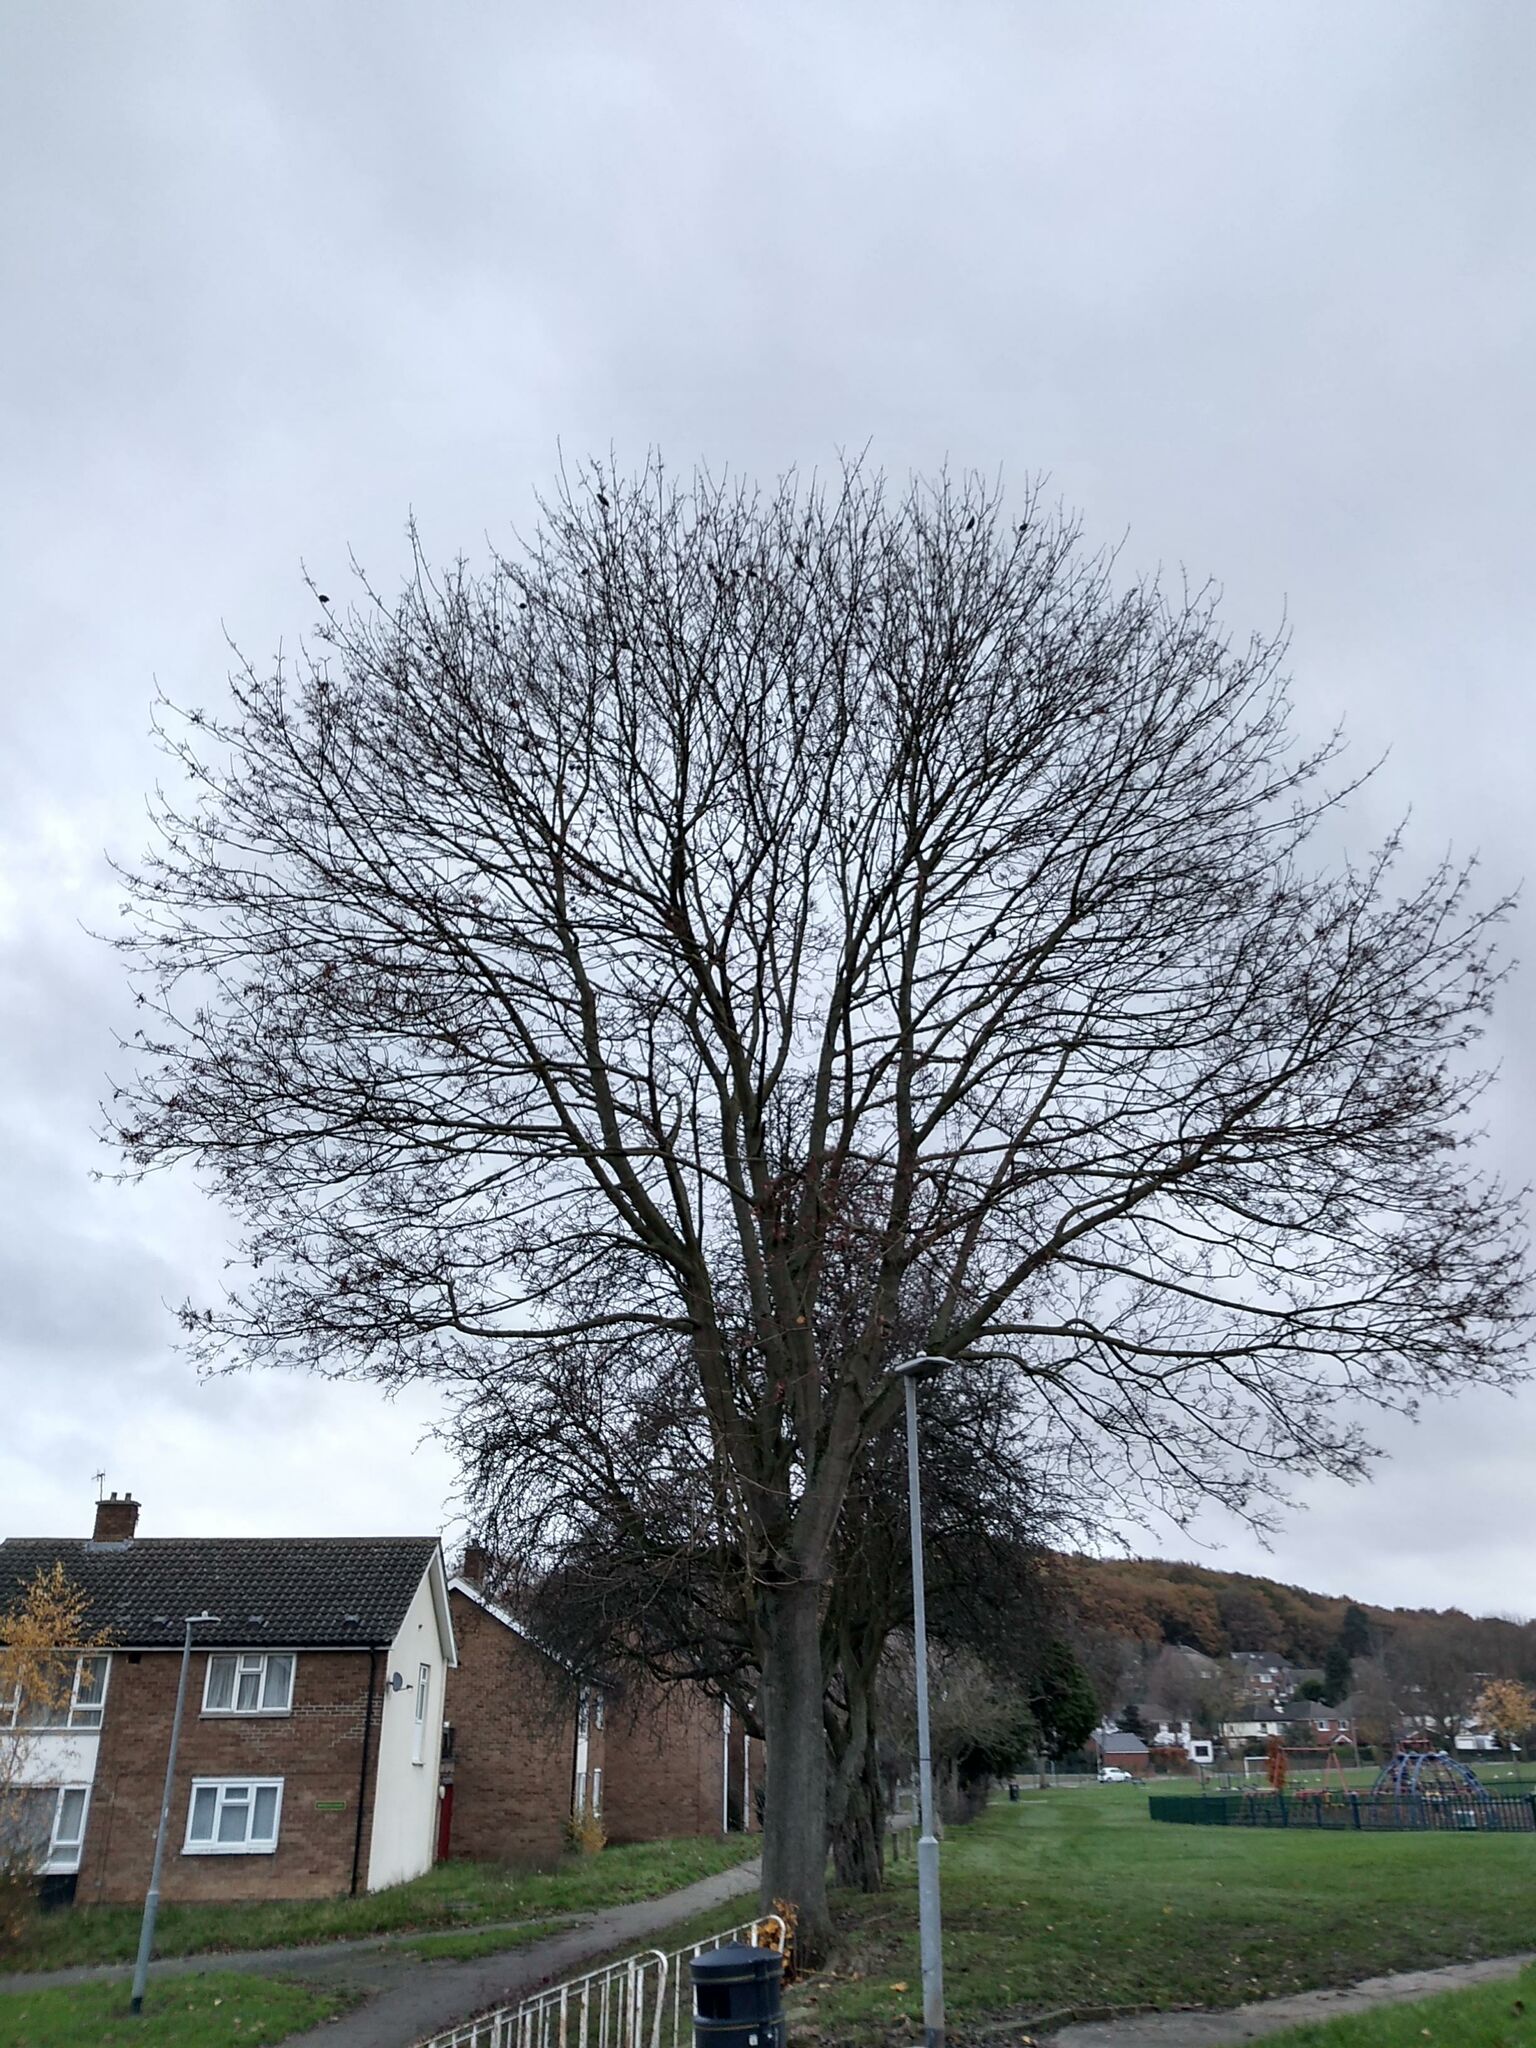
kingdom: Animalia
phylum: Chordata
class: Aves
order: Passeriformes
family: Sturnidae
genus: Sturnus
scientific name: Sturnus vulgaris
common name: Common starling
